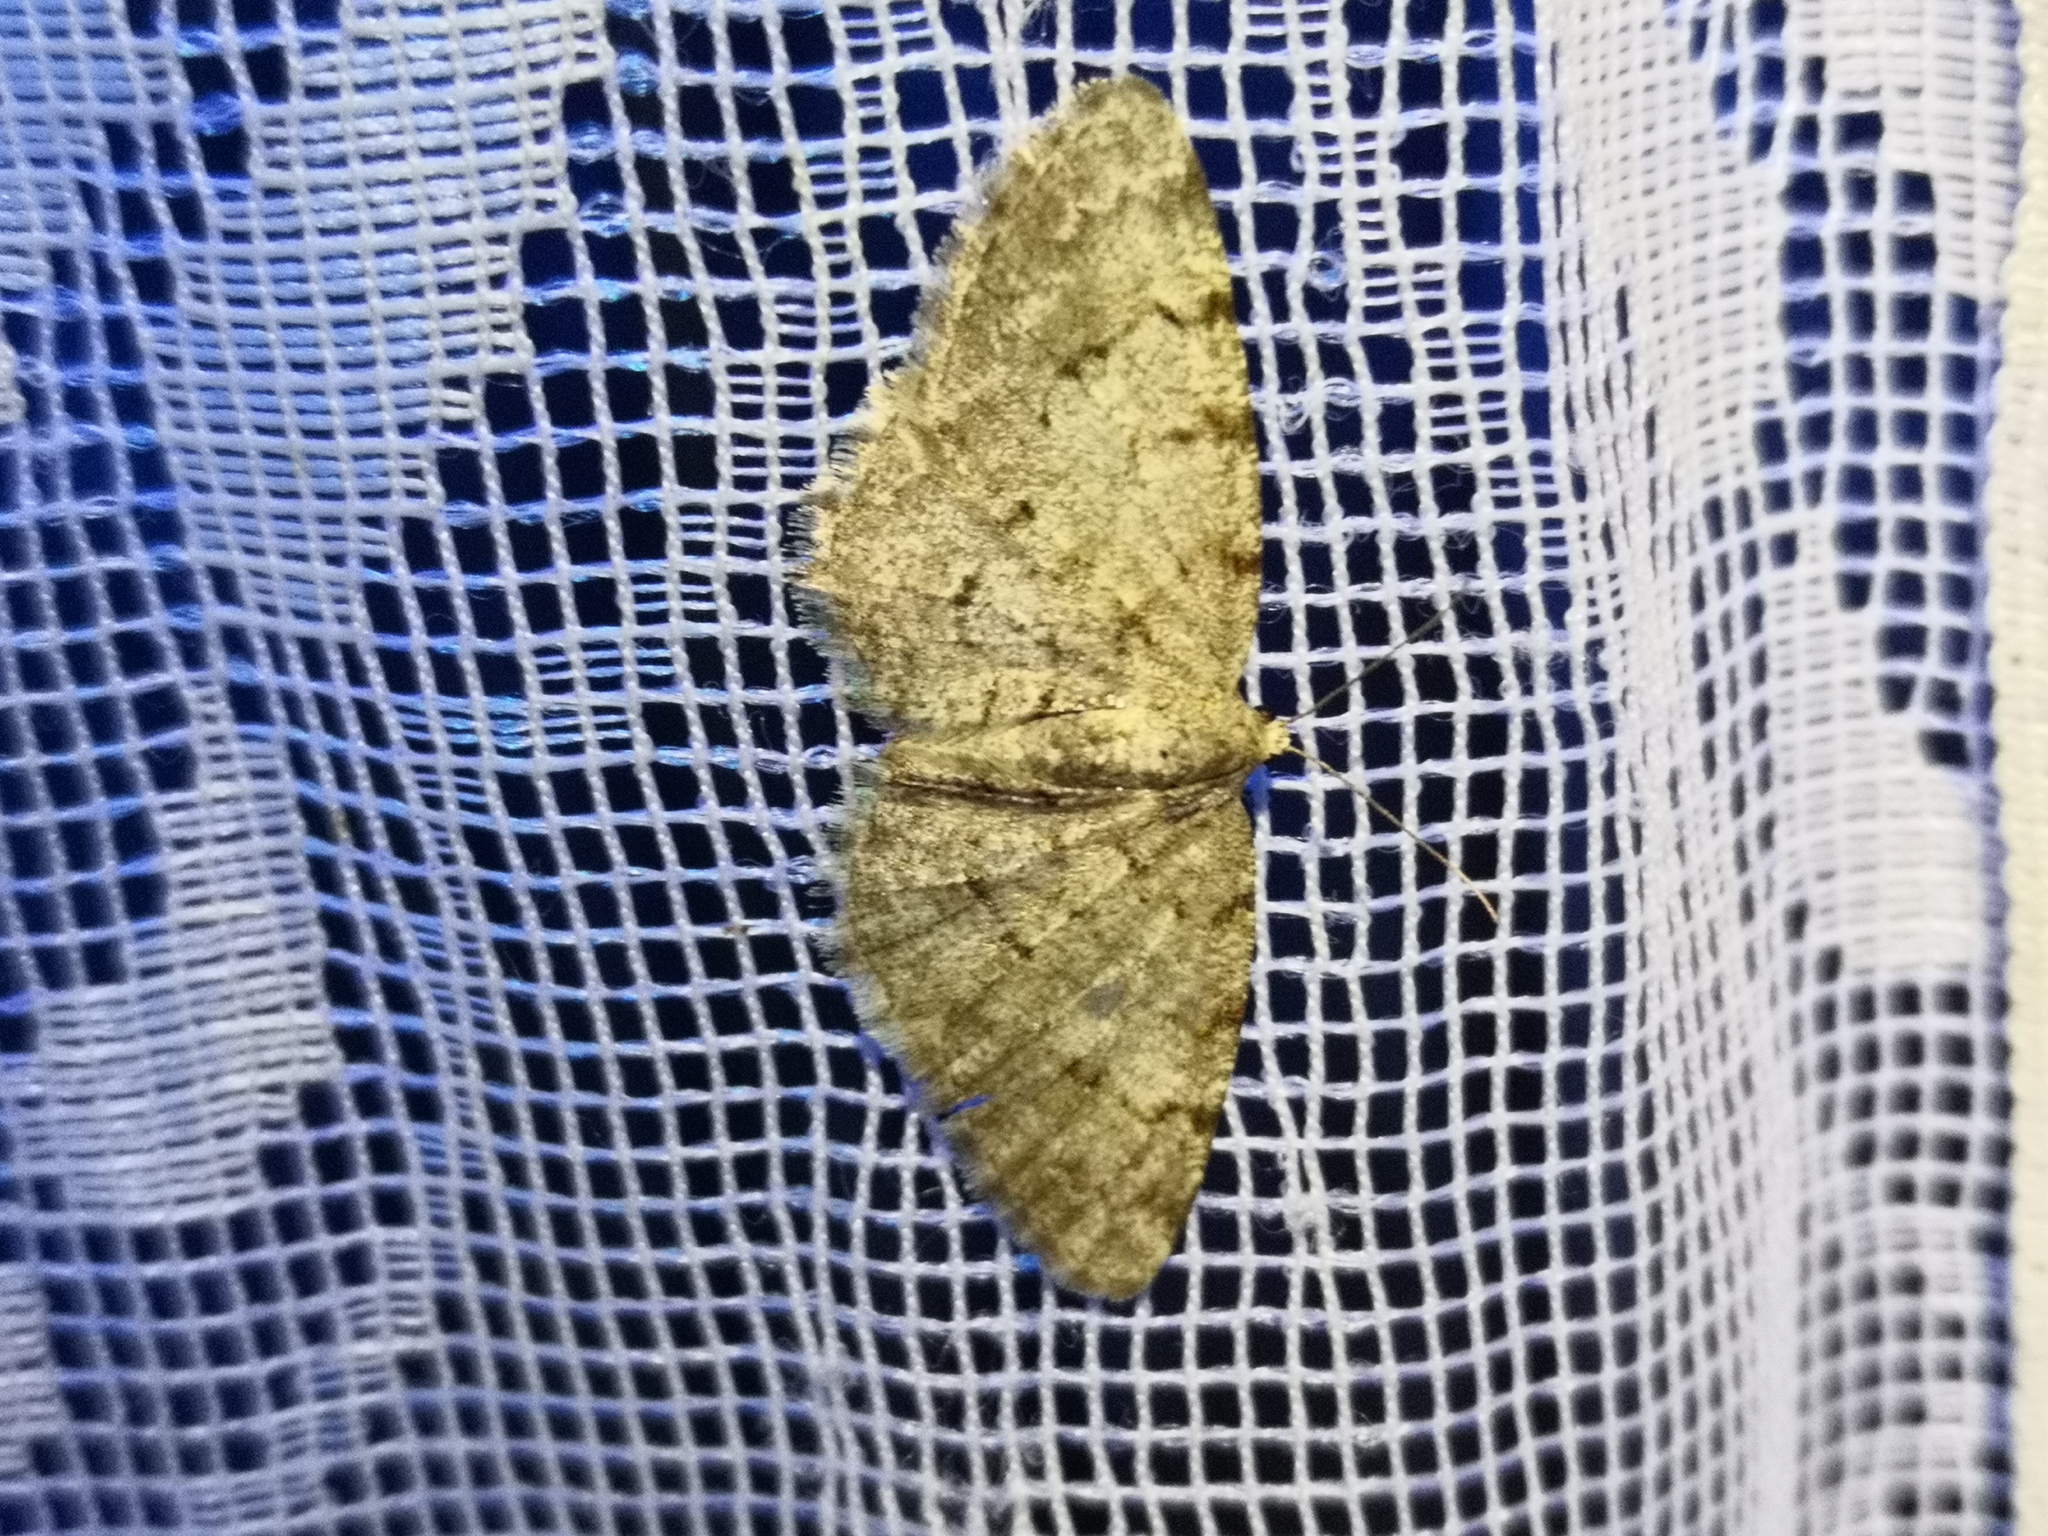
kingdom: Animalia
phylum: Arthropoda
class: Insecta
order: Lepidoptera
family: Geometridae
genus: Aethalura
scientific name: Aethalura punctulata
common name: Grey birch
